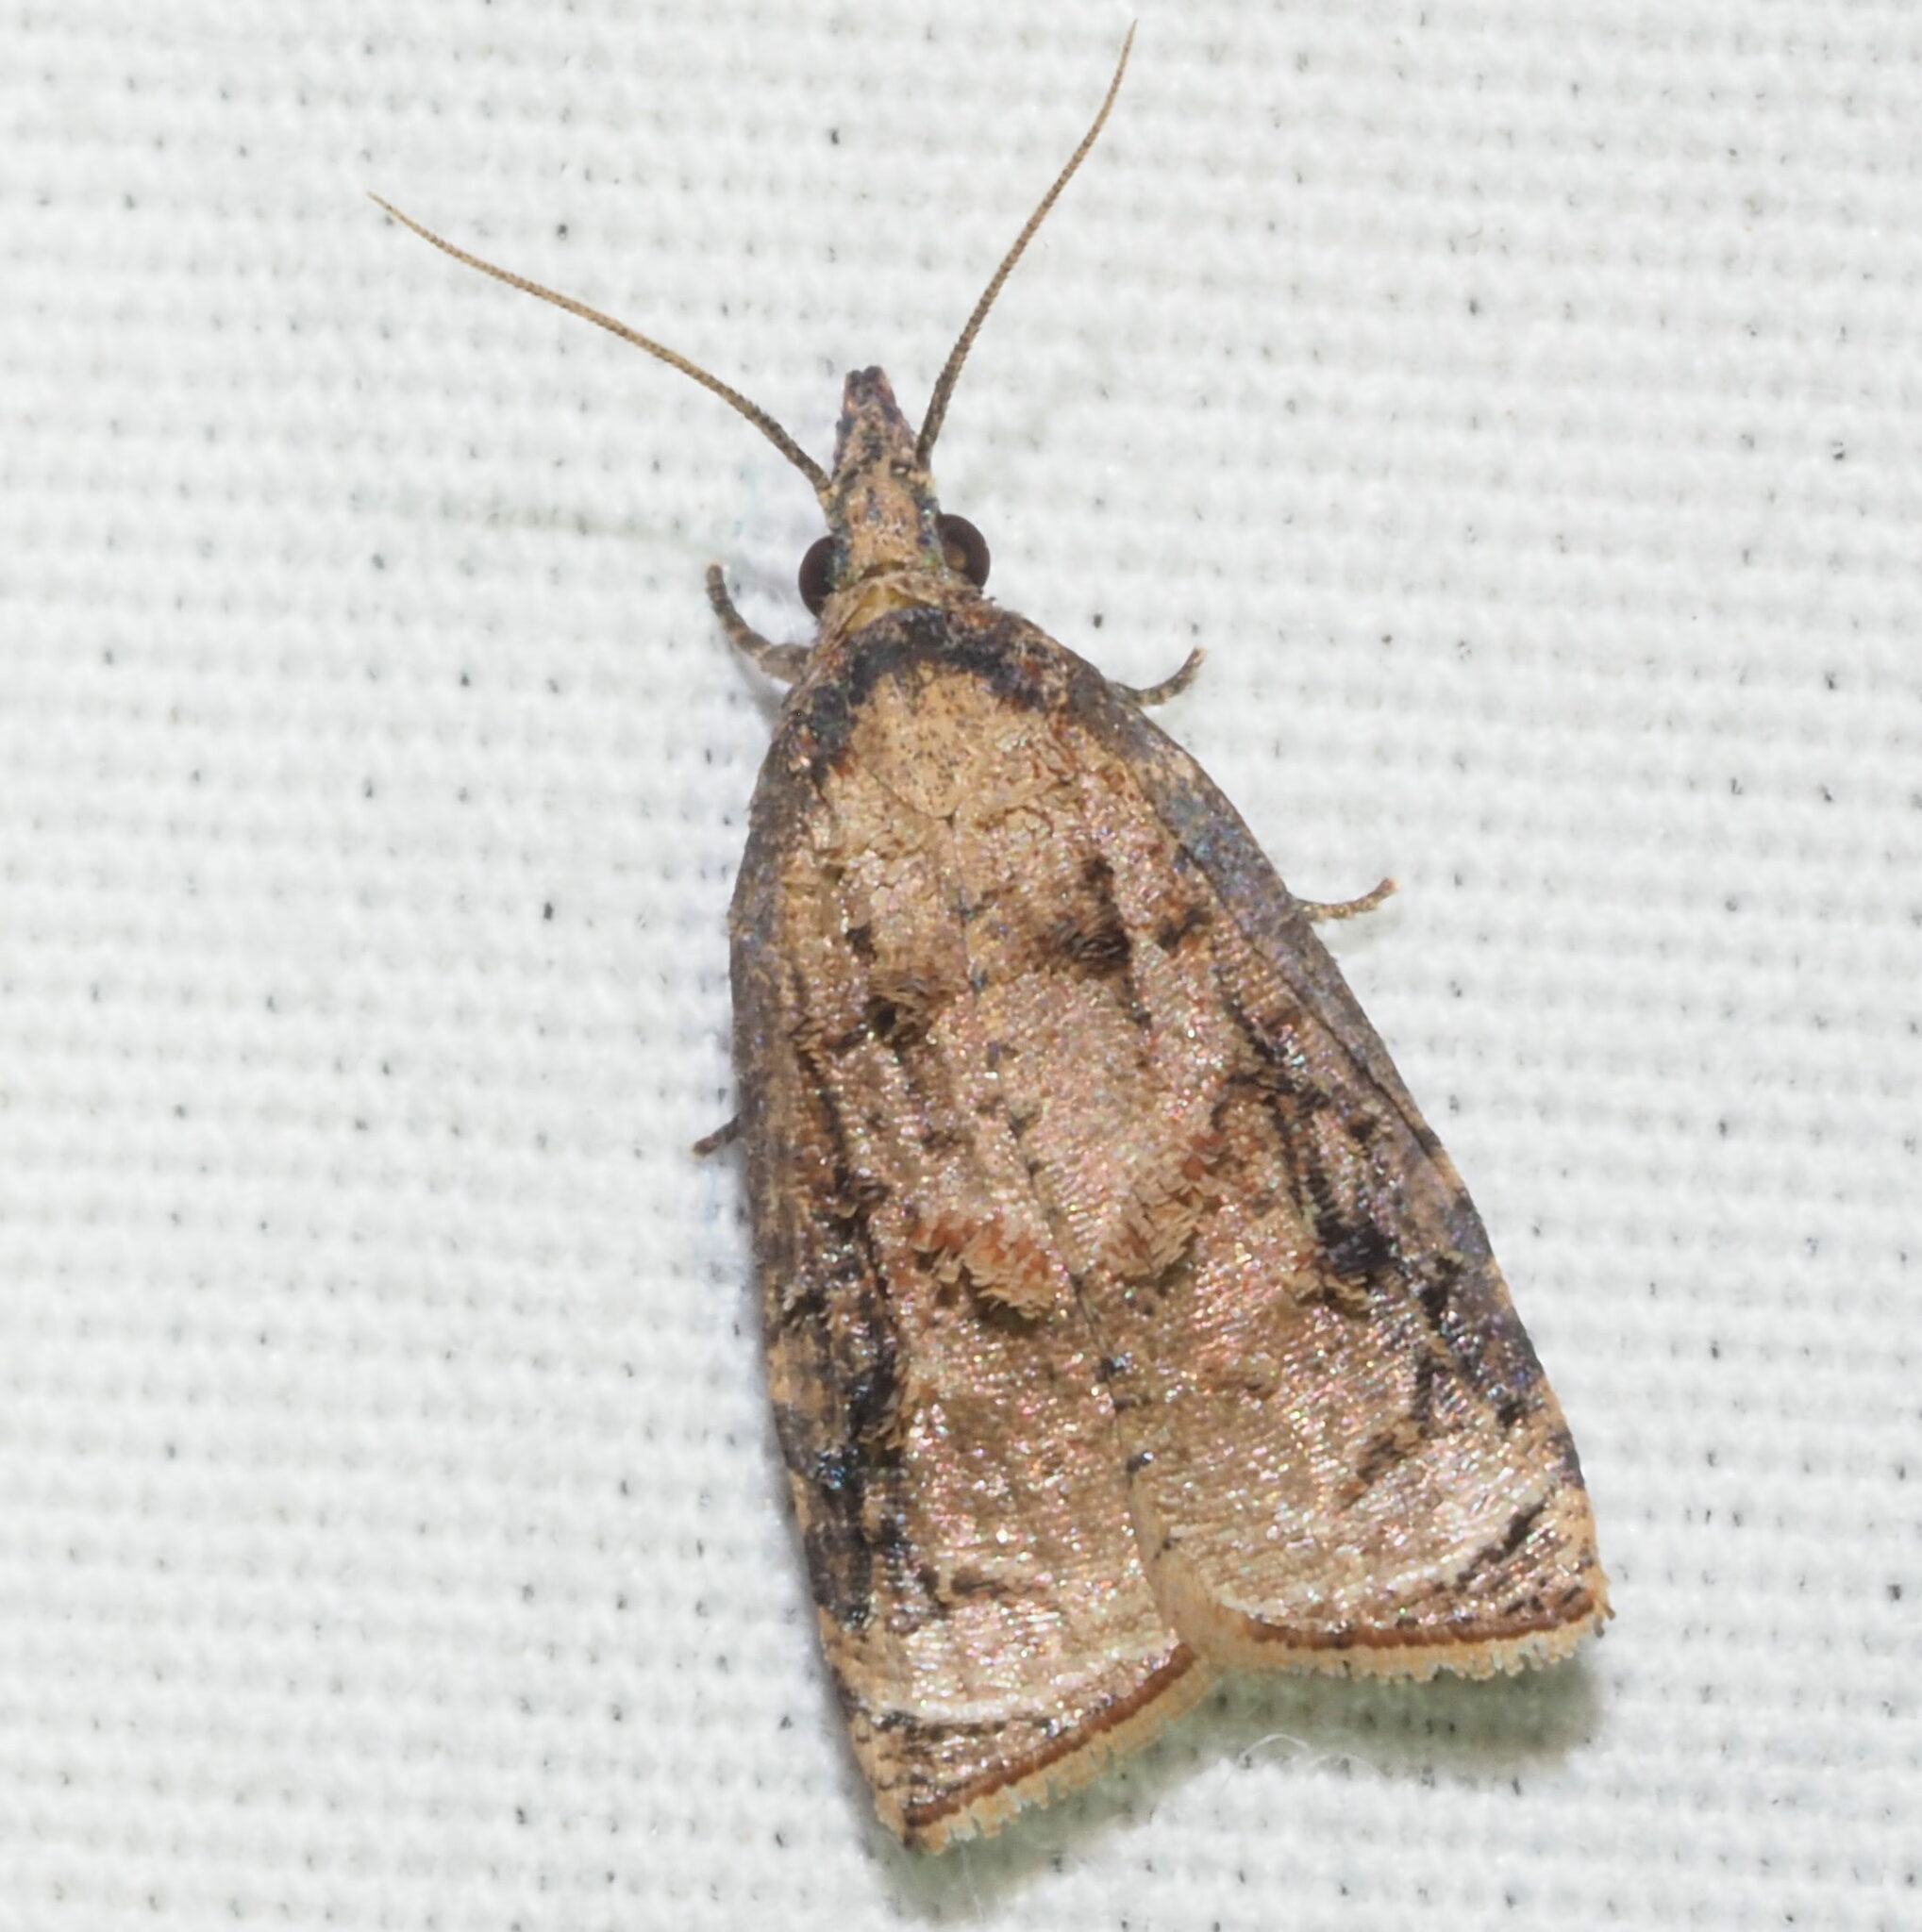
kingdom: Animalia
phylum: Arthropoda
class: Insecta
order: Lepidoptera
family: Tortricidae
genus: Platynota
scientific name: Platynota rostrana
